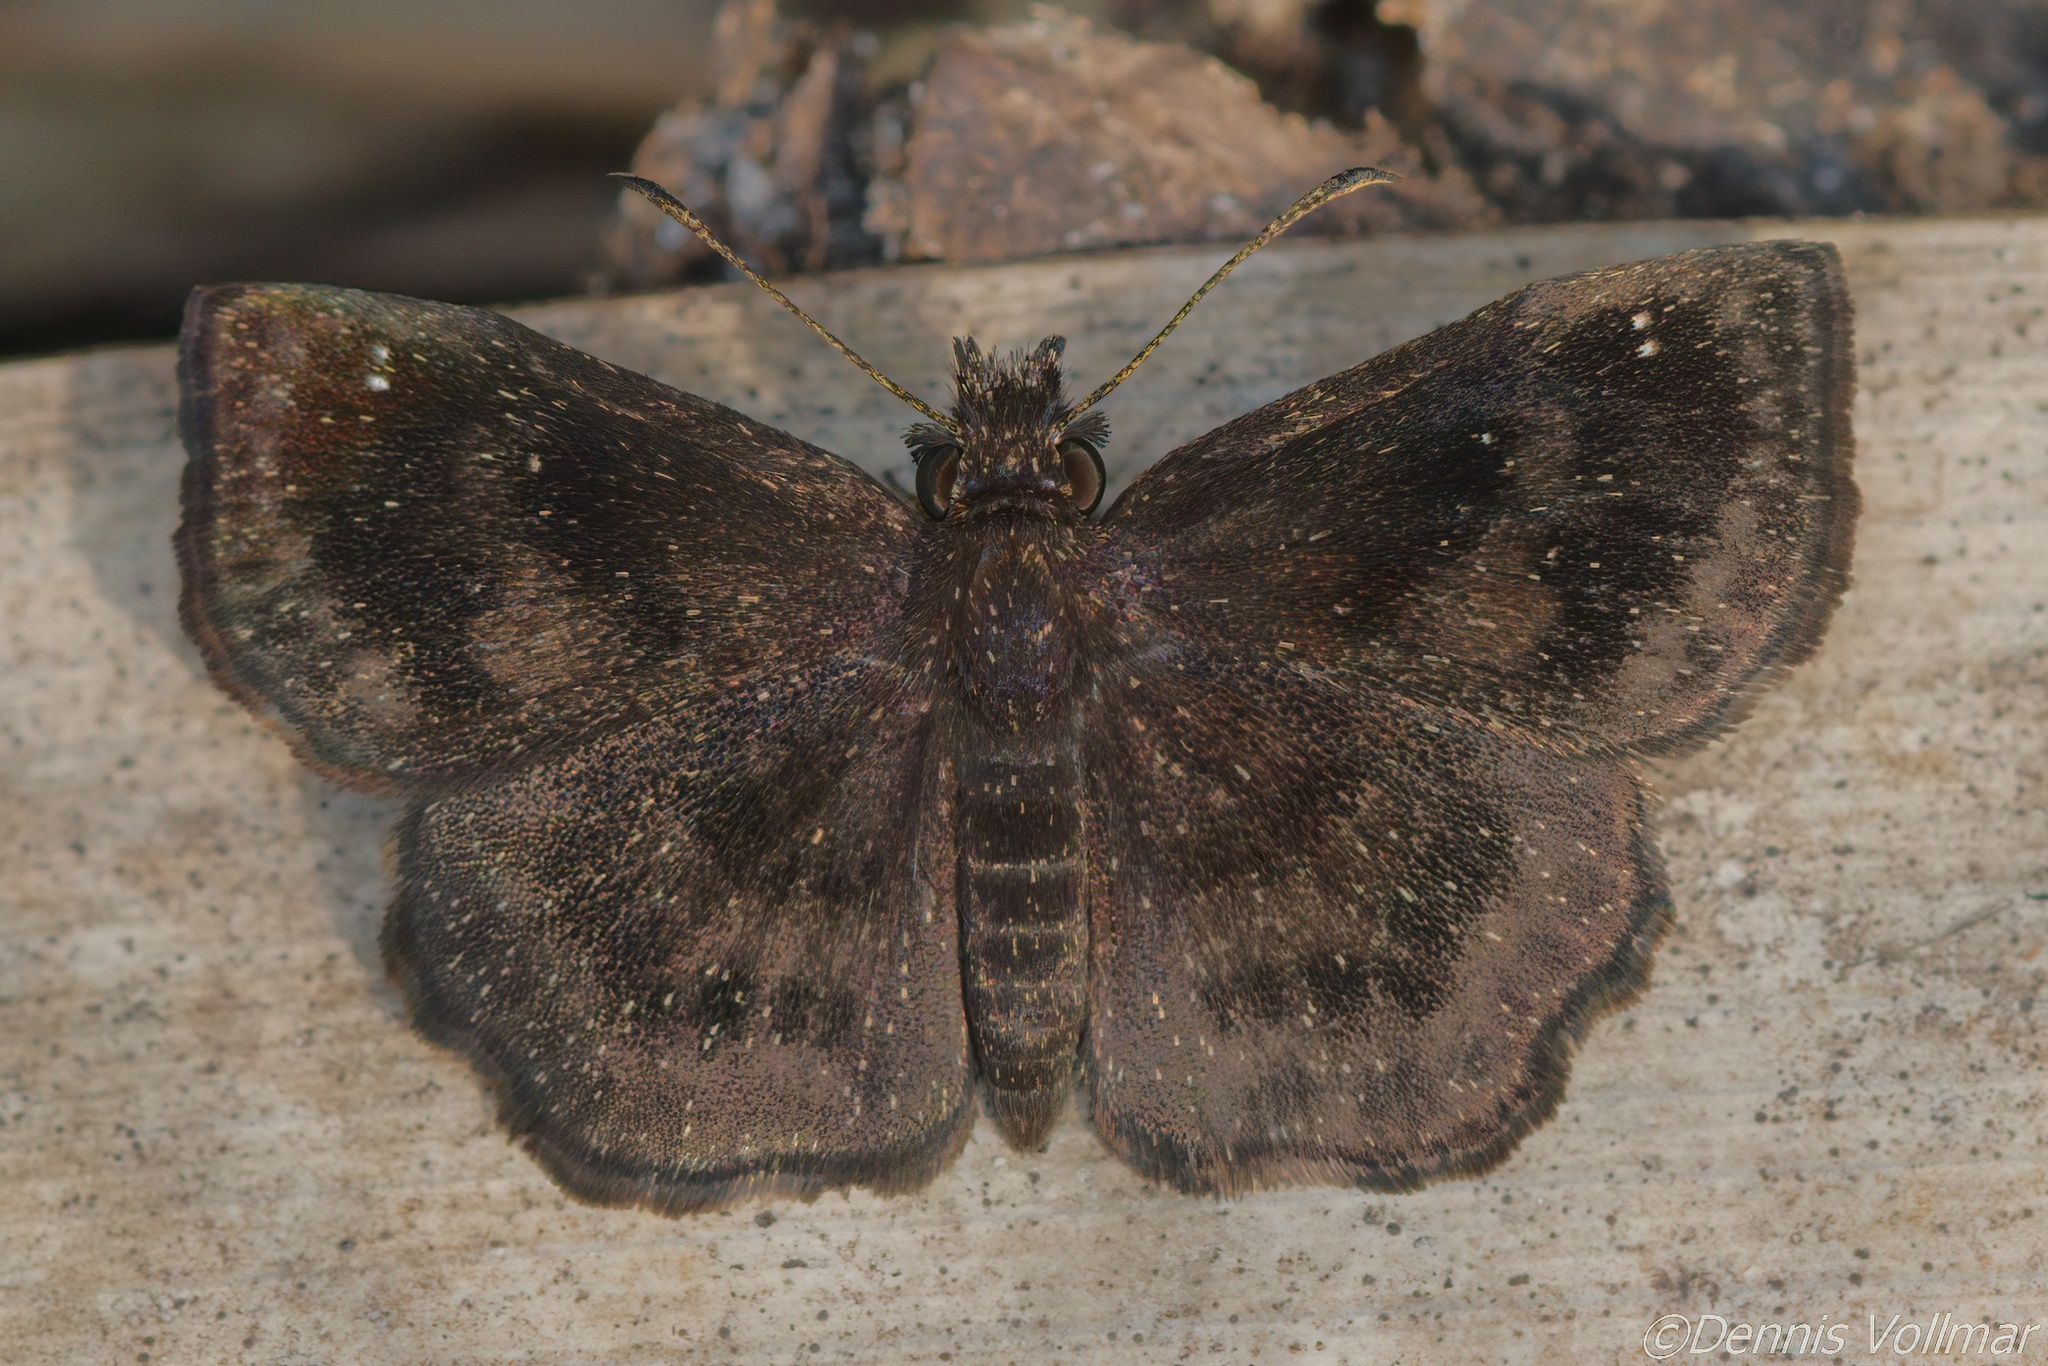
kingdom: Animalia
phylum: Arthropoda
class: Insecta
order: Lepidoptera
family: Hesperiidae
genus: Staphylus
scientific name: Staphylus mazans
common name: Mazans scallopwing
